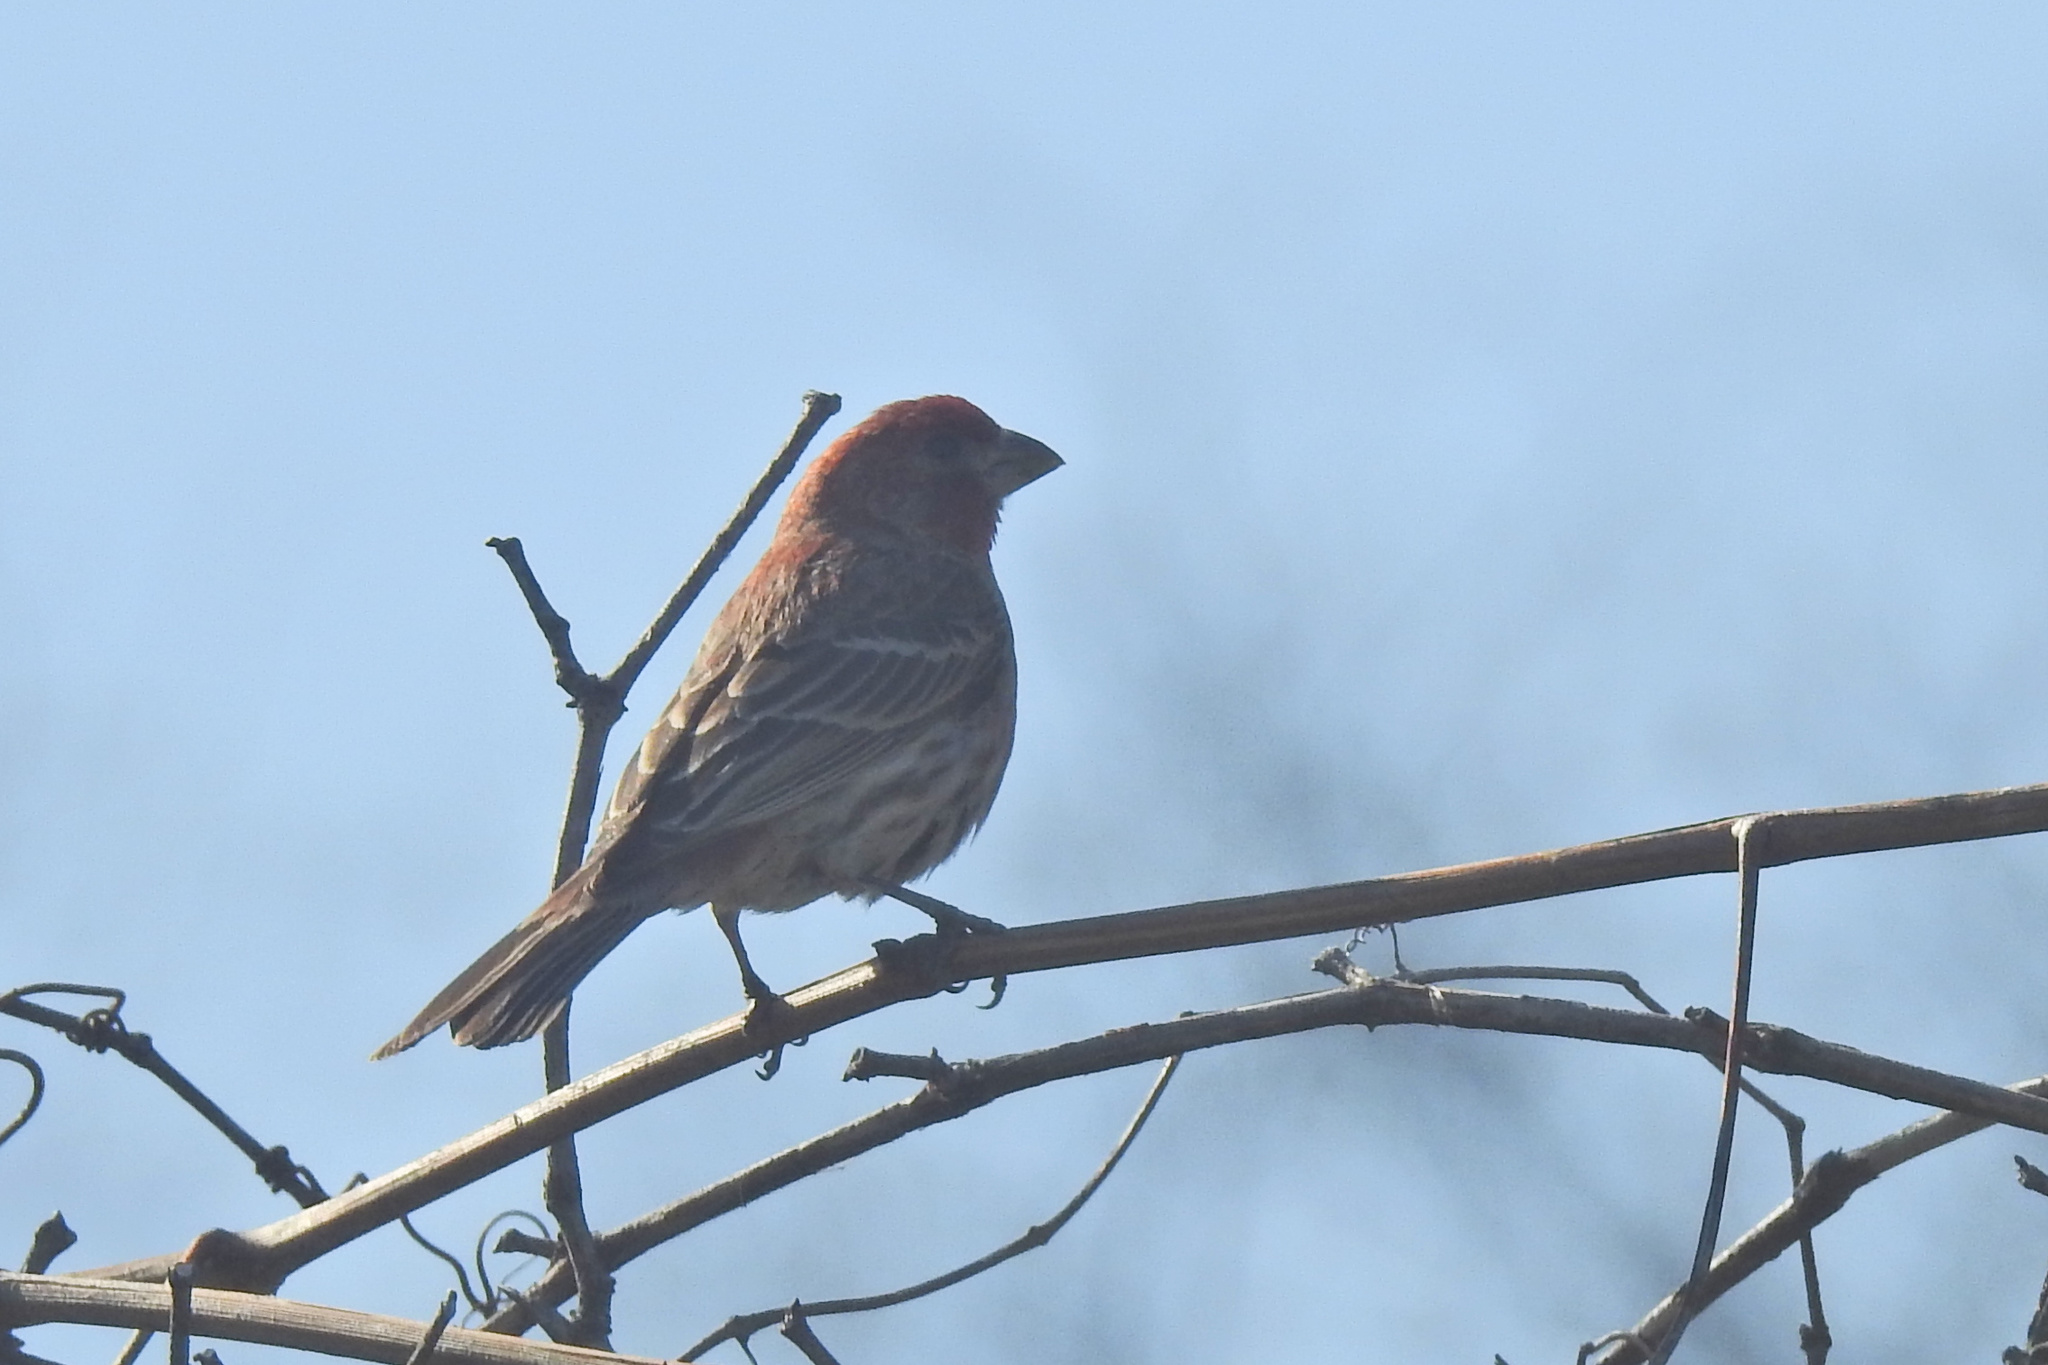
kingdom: Animalia
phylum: Chordata
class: Aves
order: Passeriformes
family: Fringillidae
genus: Haemorhous
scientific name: Haemorhous mexicanus
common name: House finch
